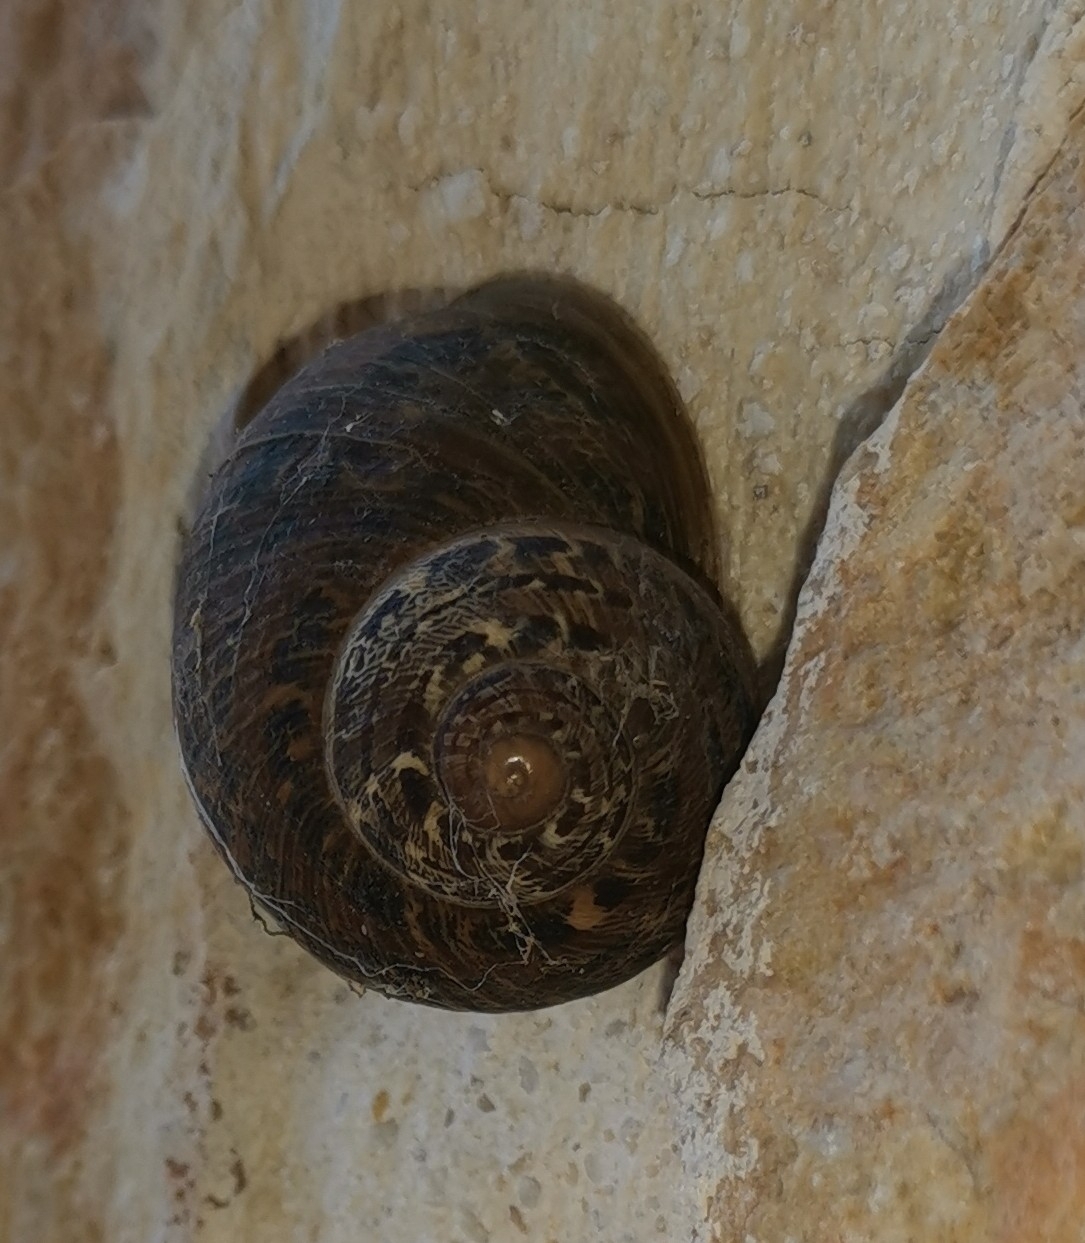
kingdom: Animalia
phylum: Mollusca
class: Gastropoda
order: Stylommatophora
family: Helicidae
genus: Cornu
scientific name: Cornu aspersum
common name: Brown garden snail
